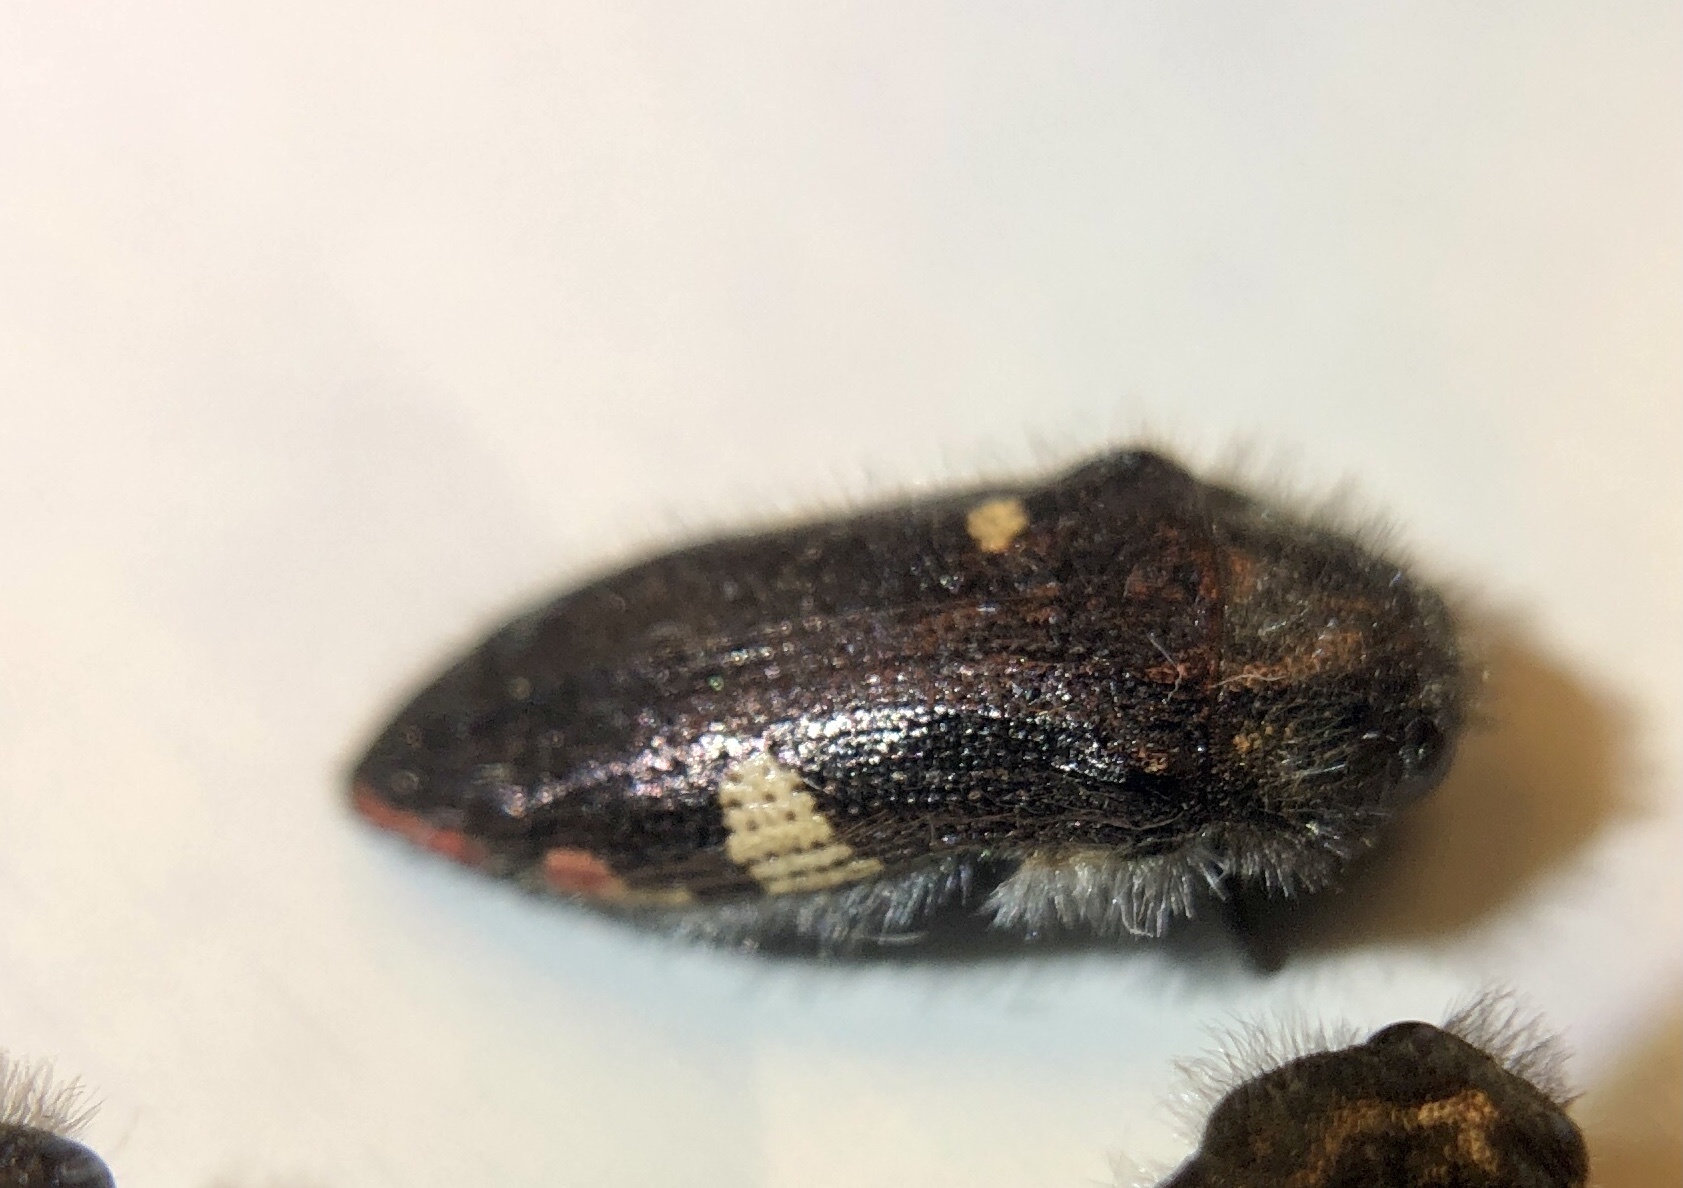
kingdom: Animalia
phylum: Arthropoda
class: Insecta
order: Coleoptera
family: Buprestidae
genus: Acmaeodera
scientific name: Acmaeodera plagiaticauda
